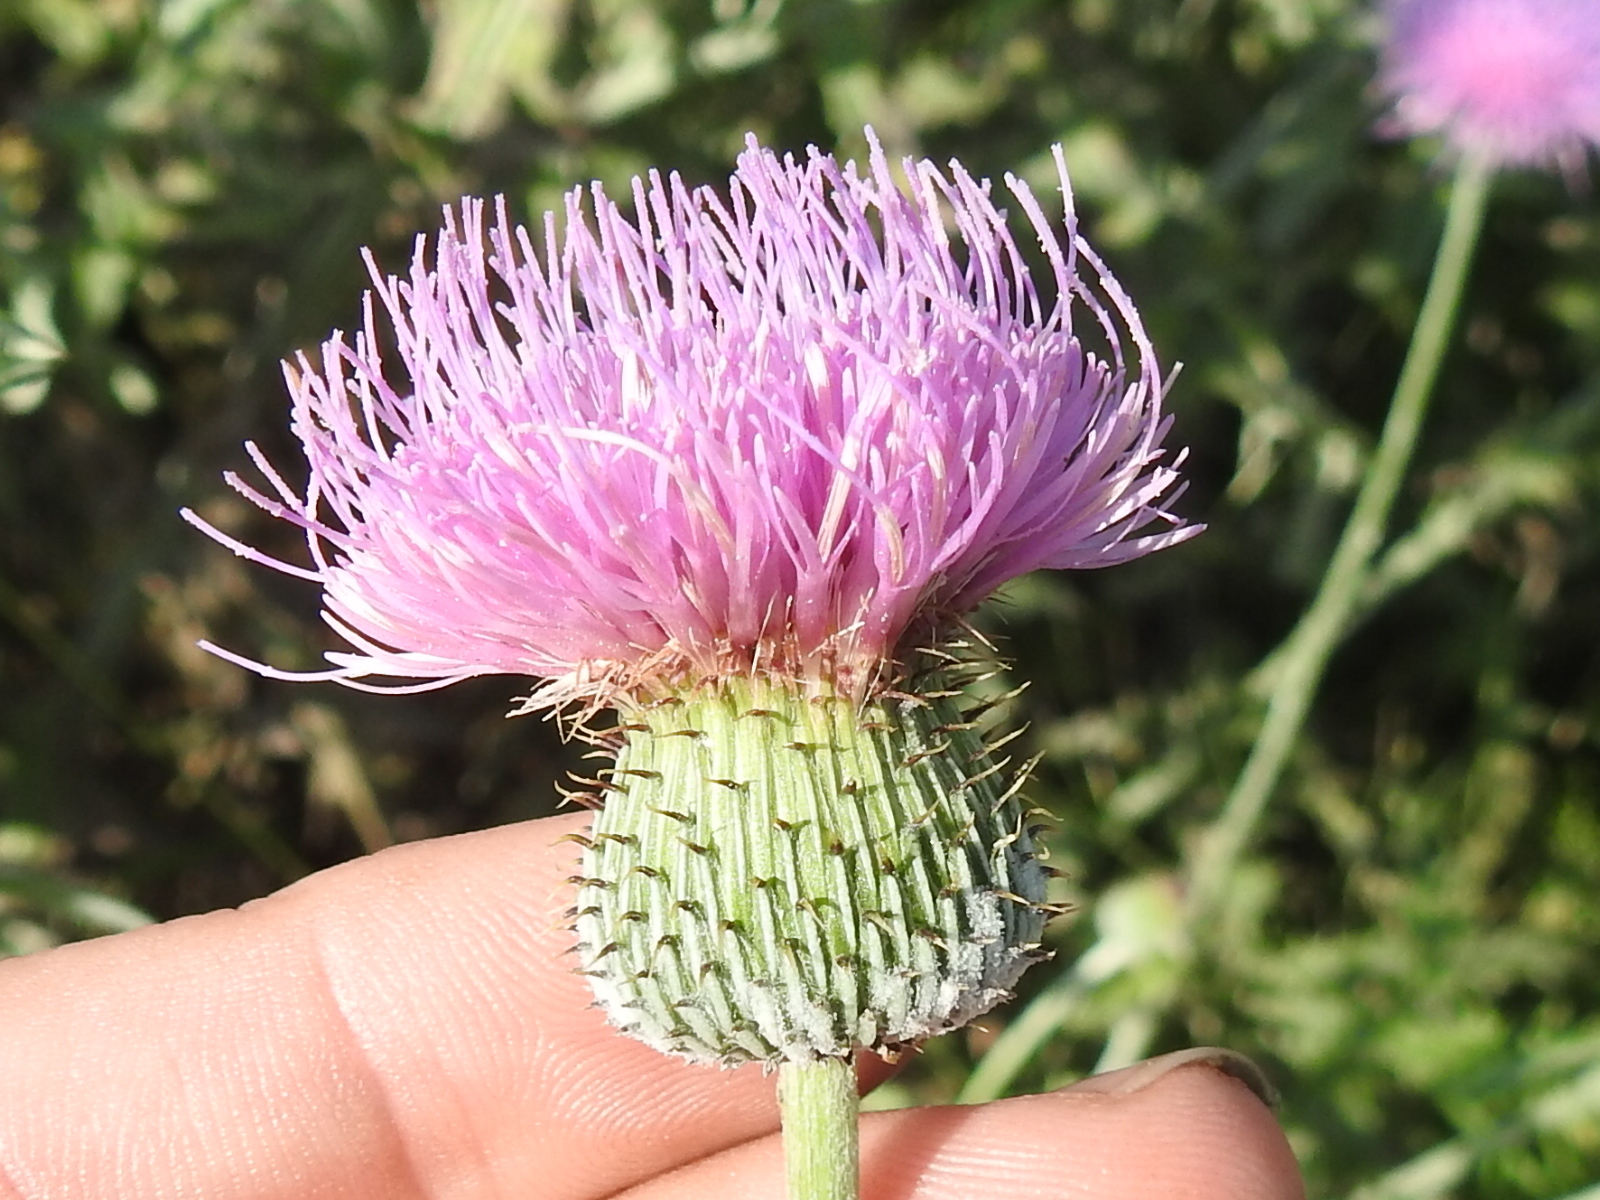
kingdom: Plantae
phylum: Tracheophyta
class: Magnoliopsida
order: Asterales
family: Asteraceae
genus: Cirsium
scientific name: Cirsium texanum
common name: Texas purple thistle
